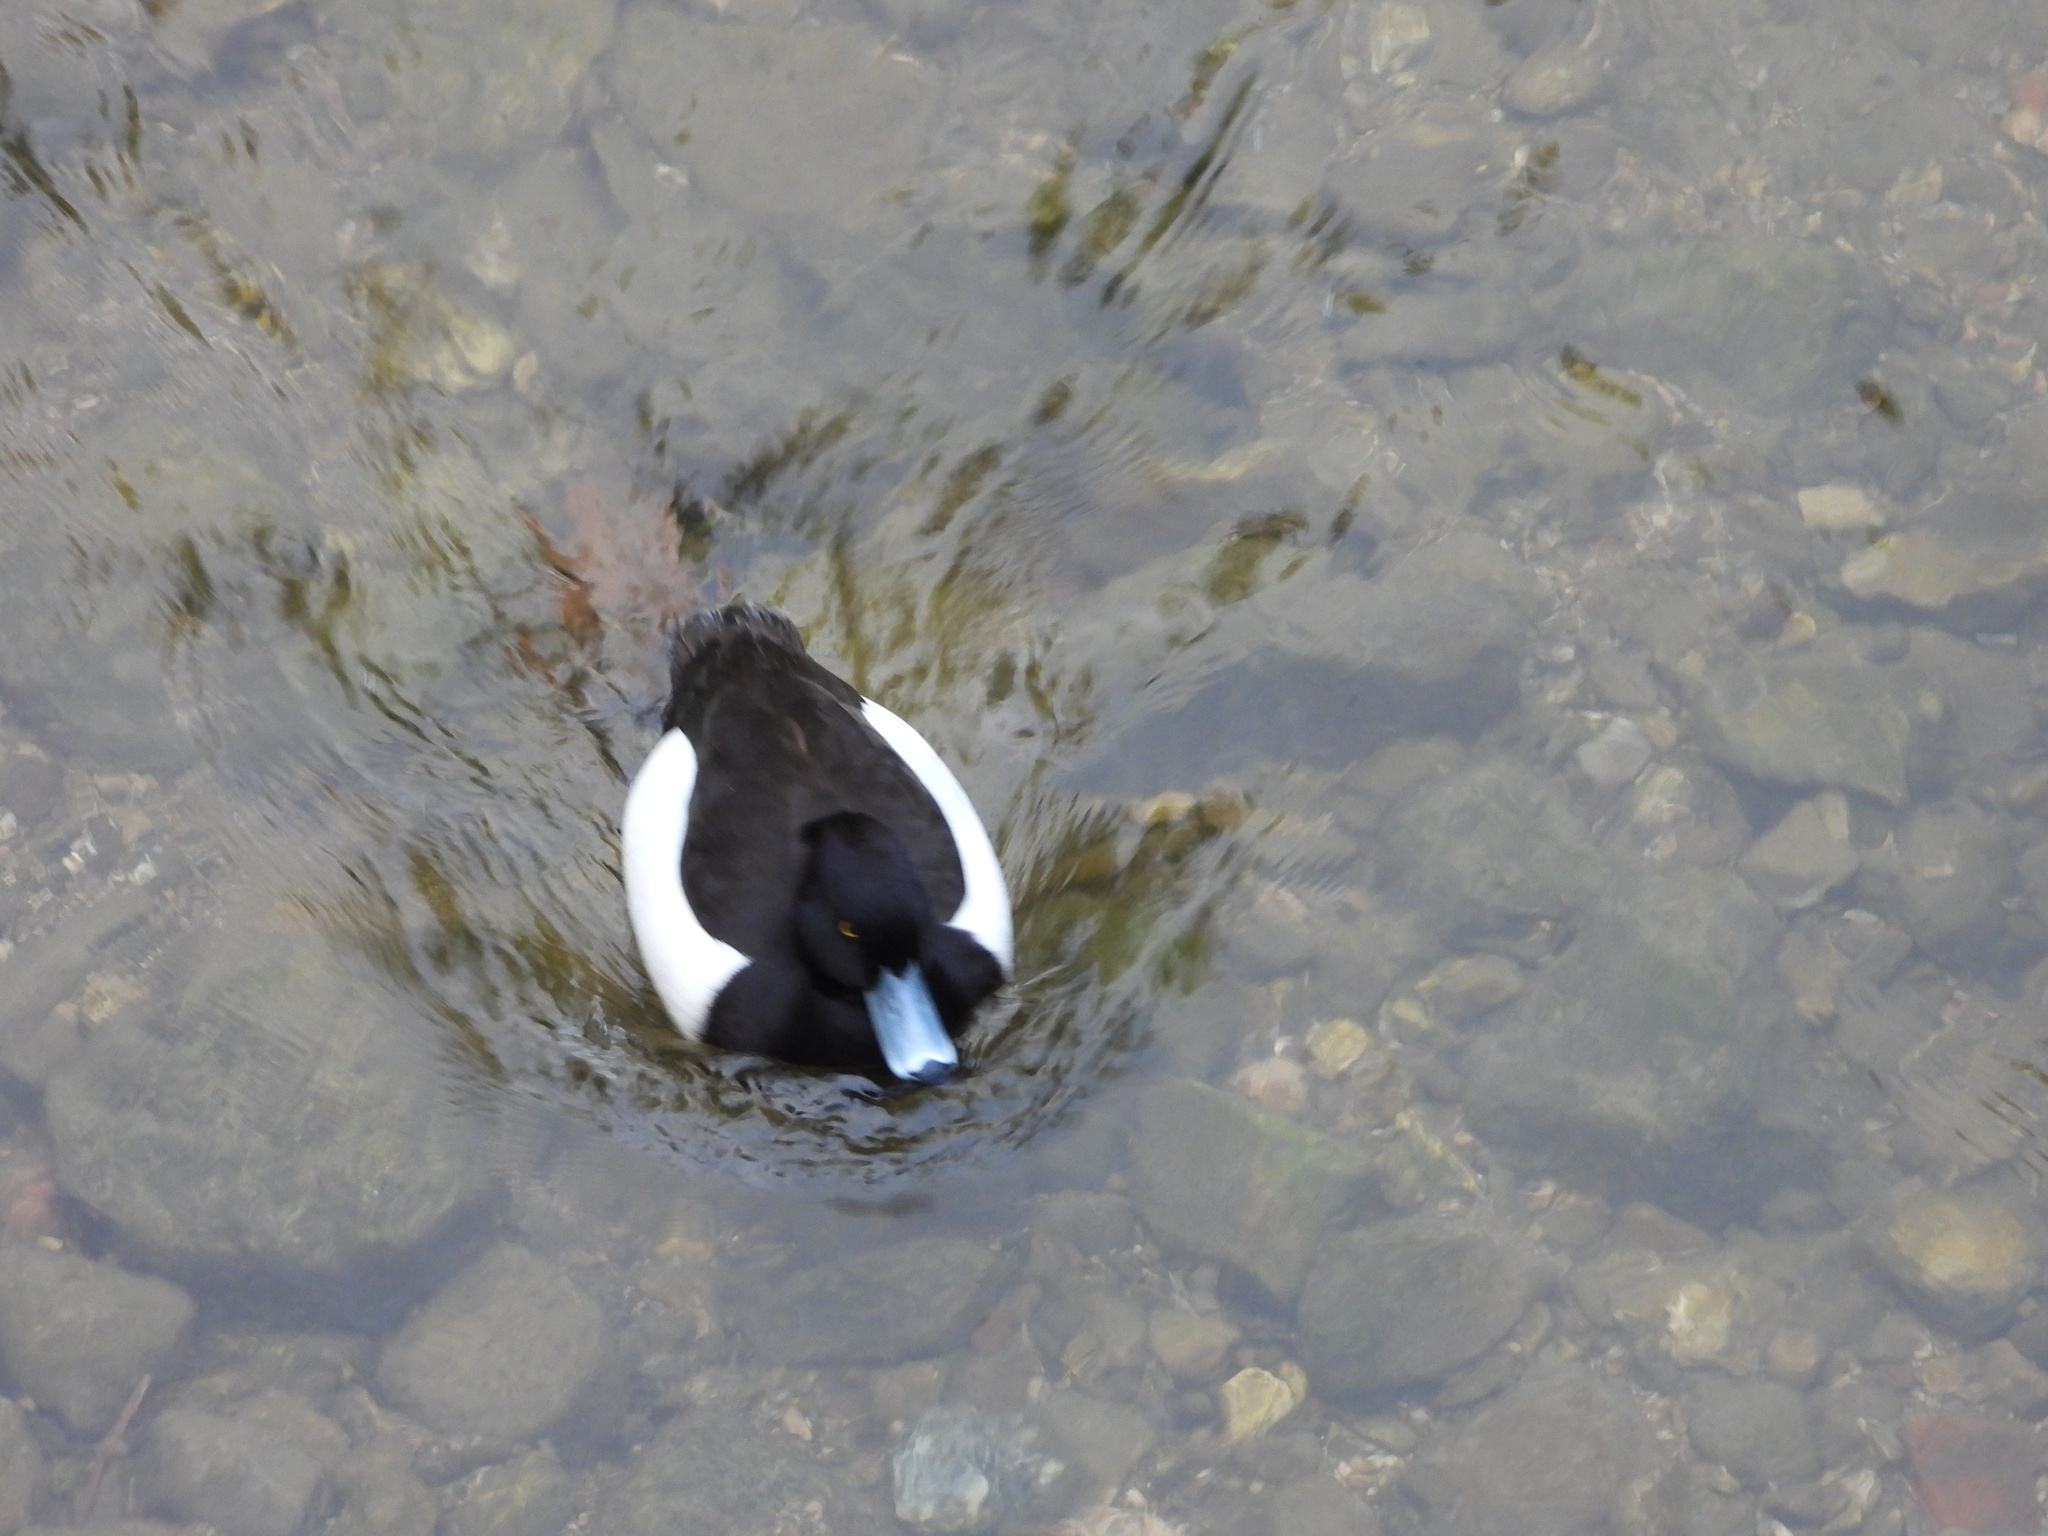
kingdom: Animalia
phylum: Chordata
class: Aves
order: Anseriformes
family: Anatidae
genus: Aythya
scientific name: Aythya fuligula
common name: Tufted duck
